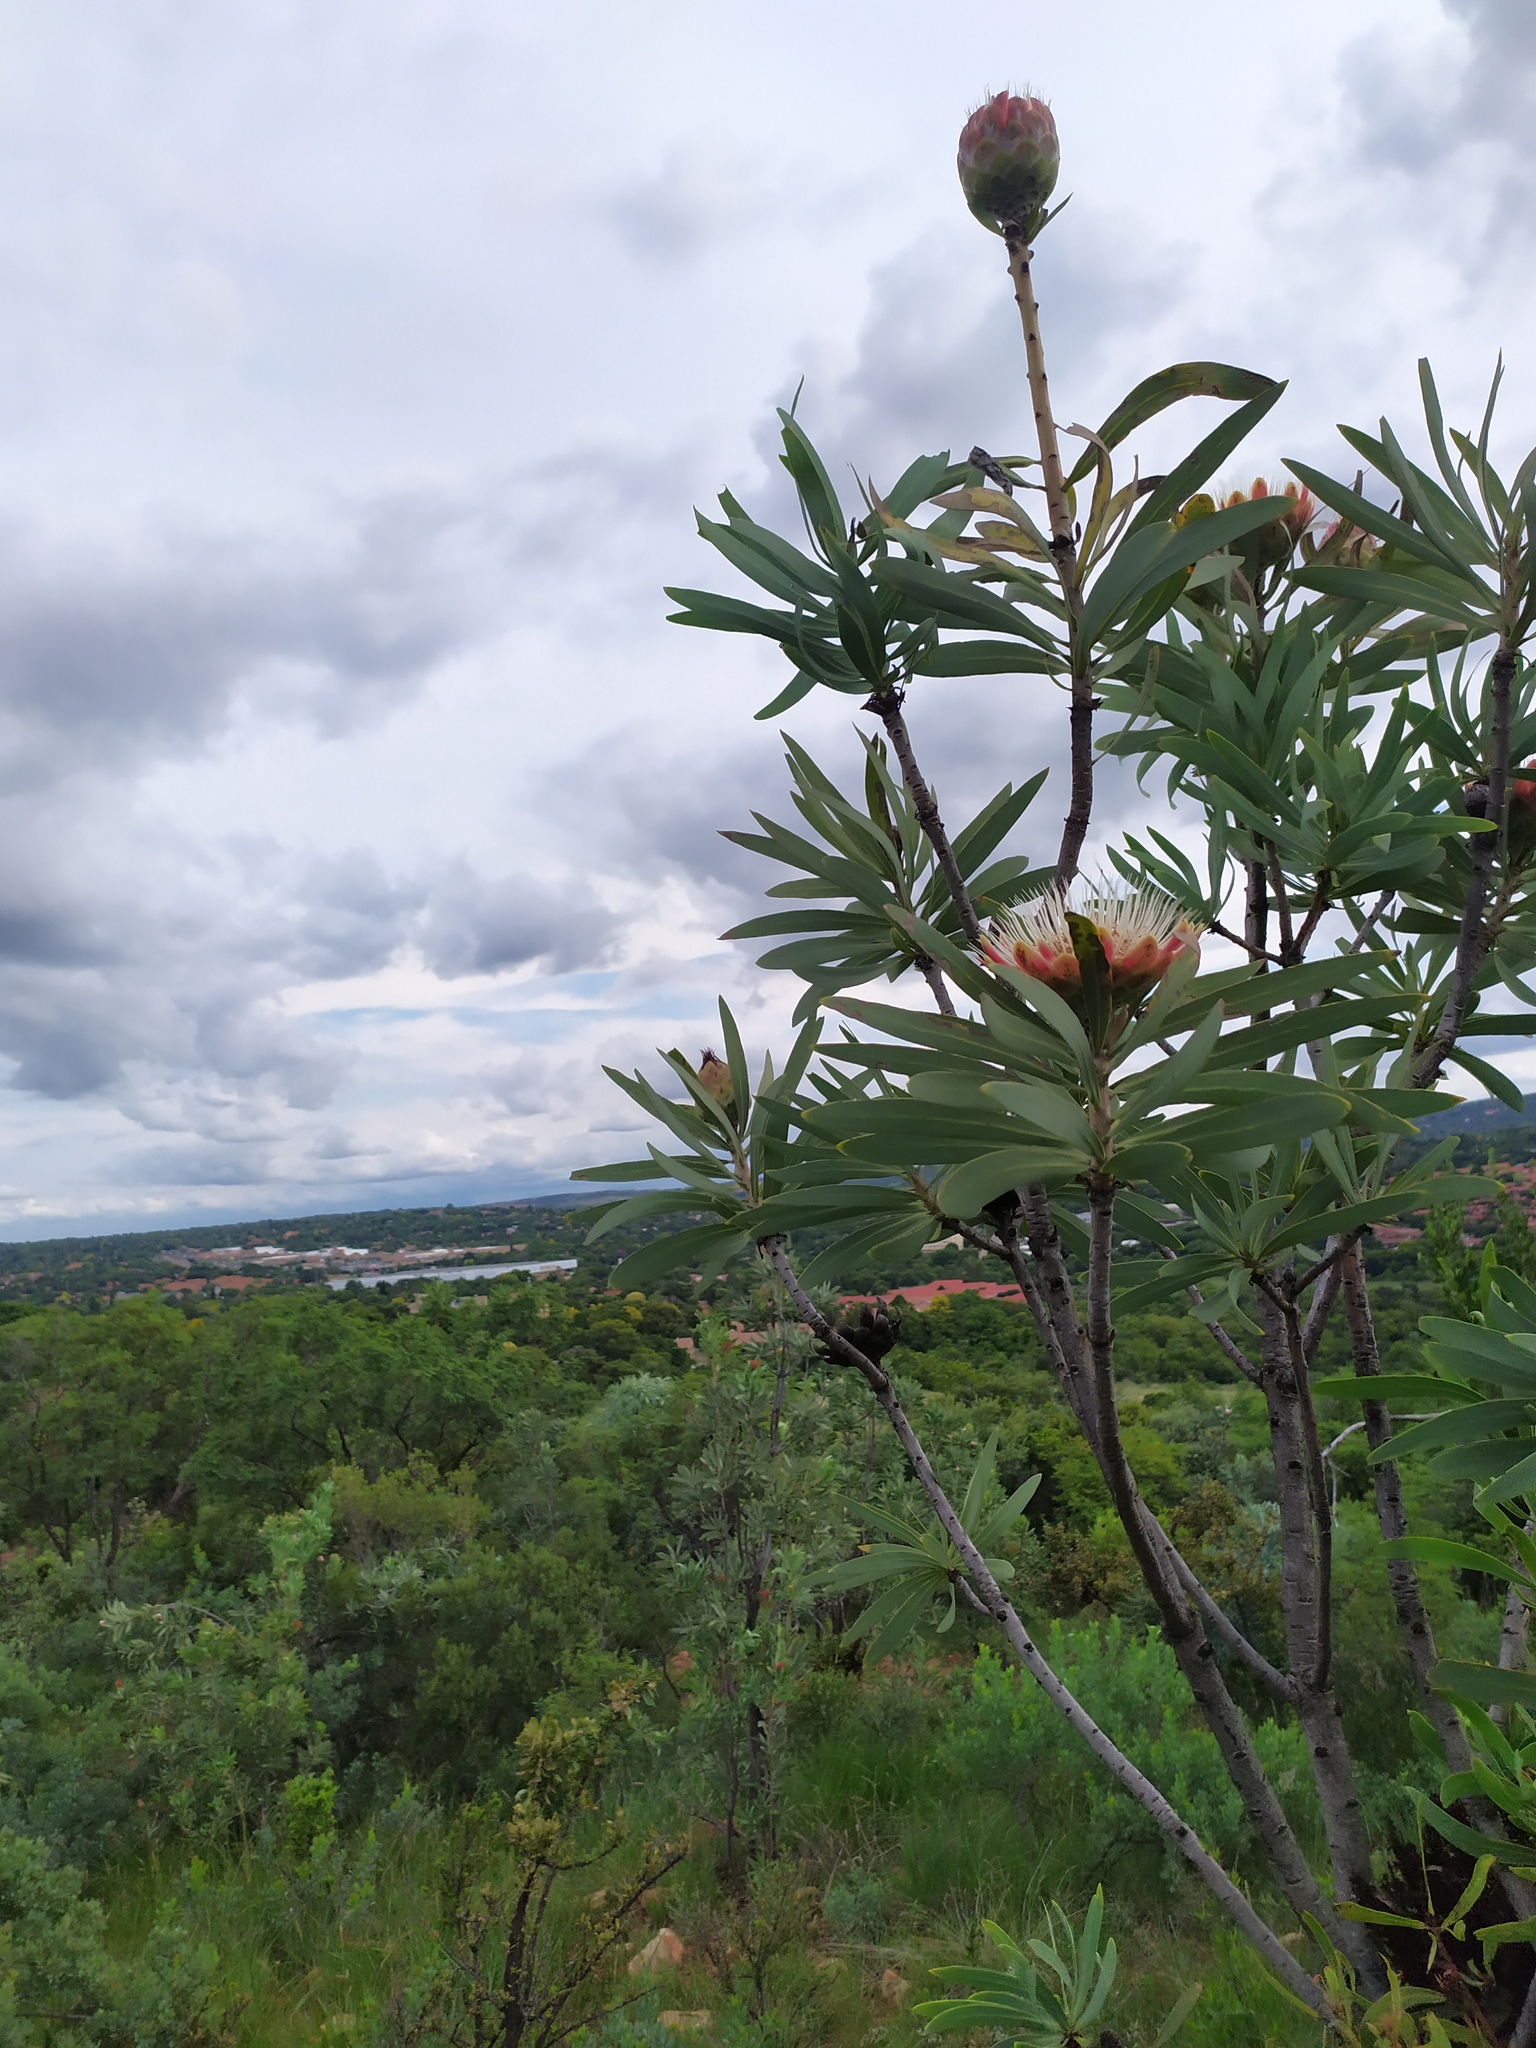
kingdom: Plantae
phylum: Tracheophyta
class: Magnoliopsida
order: Proteales
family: Proteaceae
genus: Protea
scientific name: Protea caffra
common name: Common sugarbush
